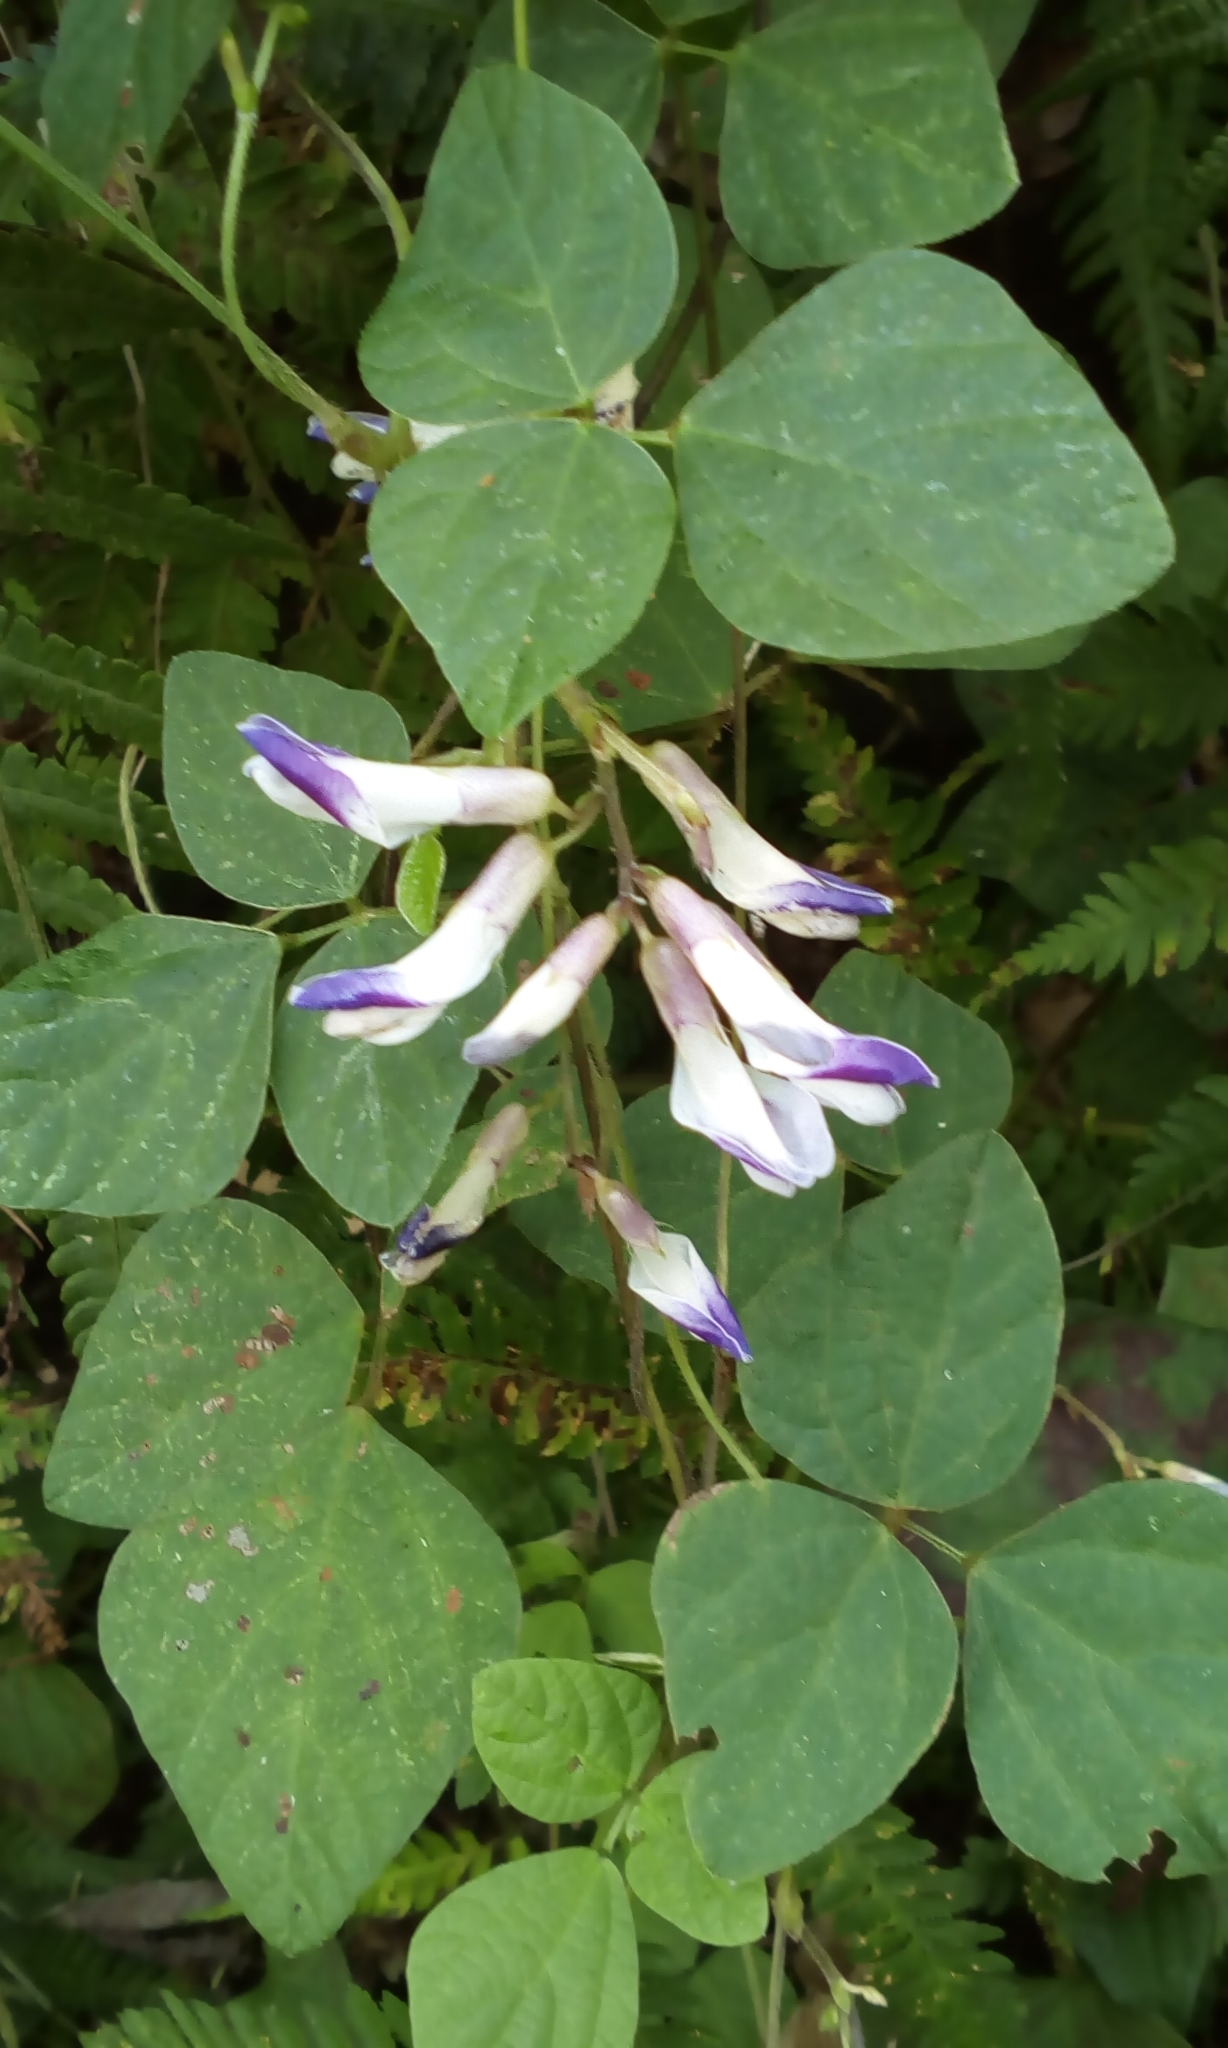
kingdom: Plantae
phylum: Tracheophyta
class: Magnoliopsida
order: Fabales
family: Fabaceae
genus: Amphicarpaea
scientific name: Amphicarpaea edgeworthii
